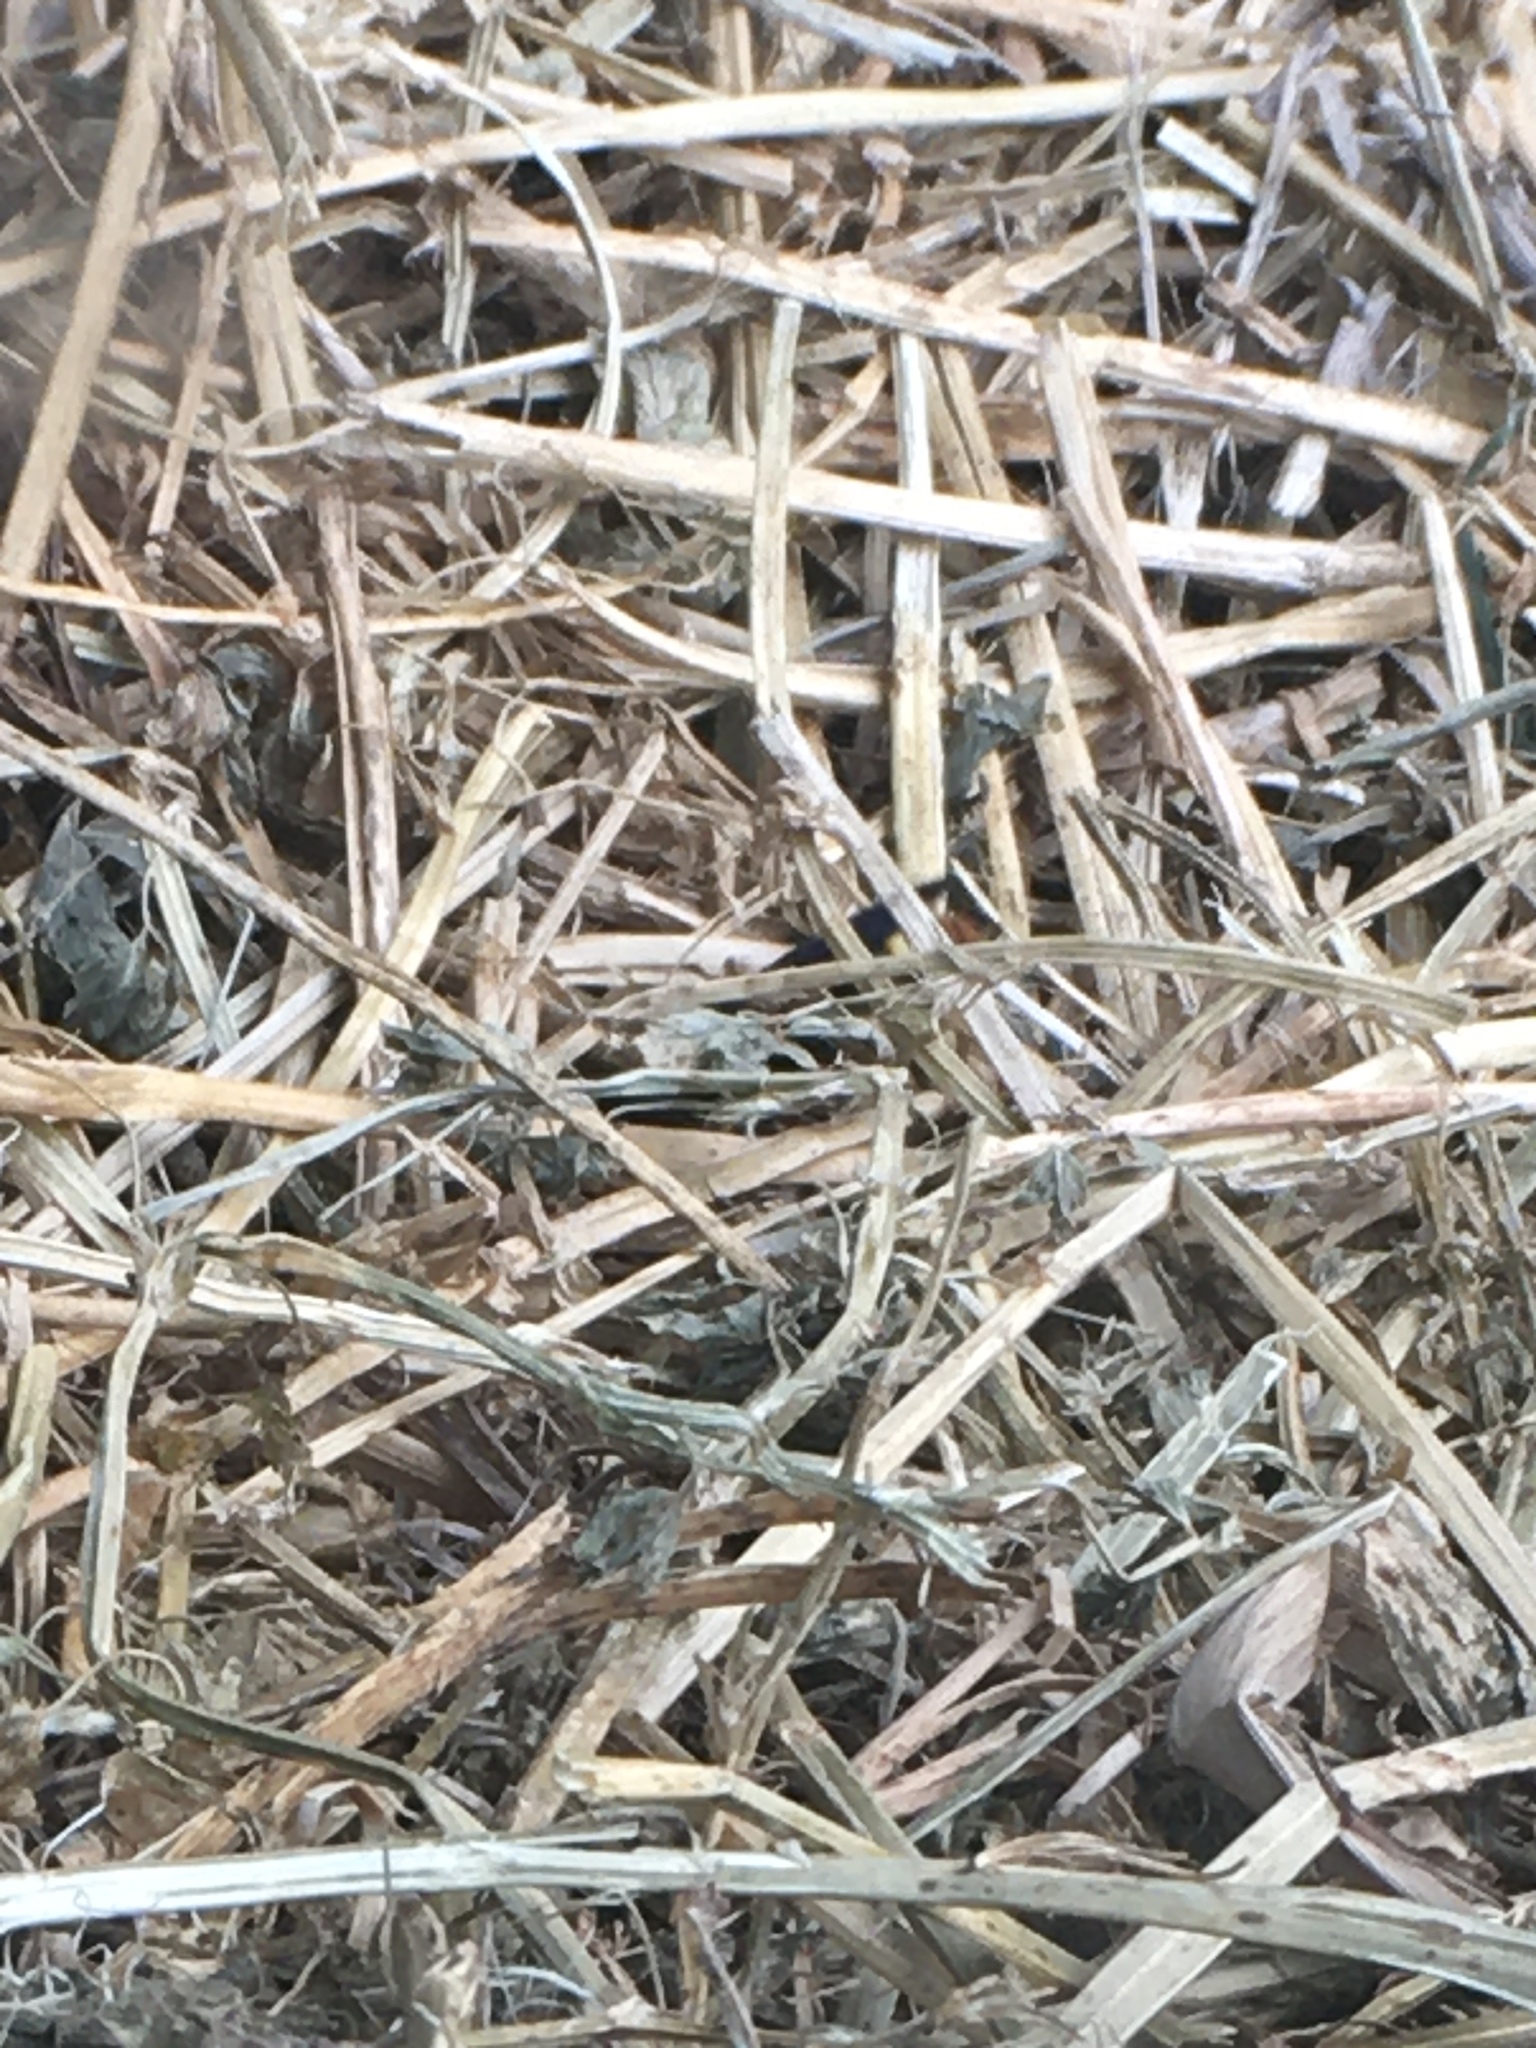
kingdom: Animalia
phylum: Arthropoda
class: Insecta
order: Hymenoptera
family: Scoliidae
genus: Scolia
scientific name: Scolia dubia
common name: Blue-winged scoliid wasp
